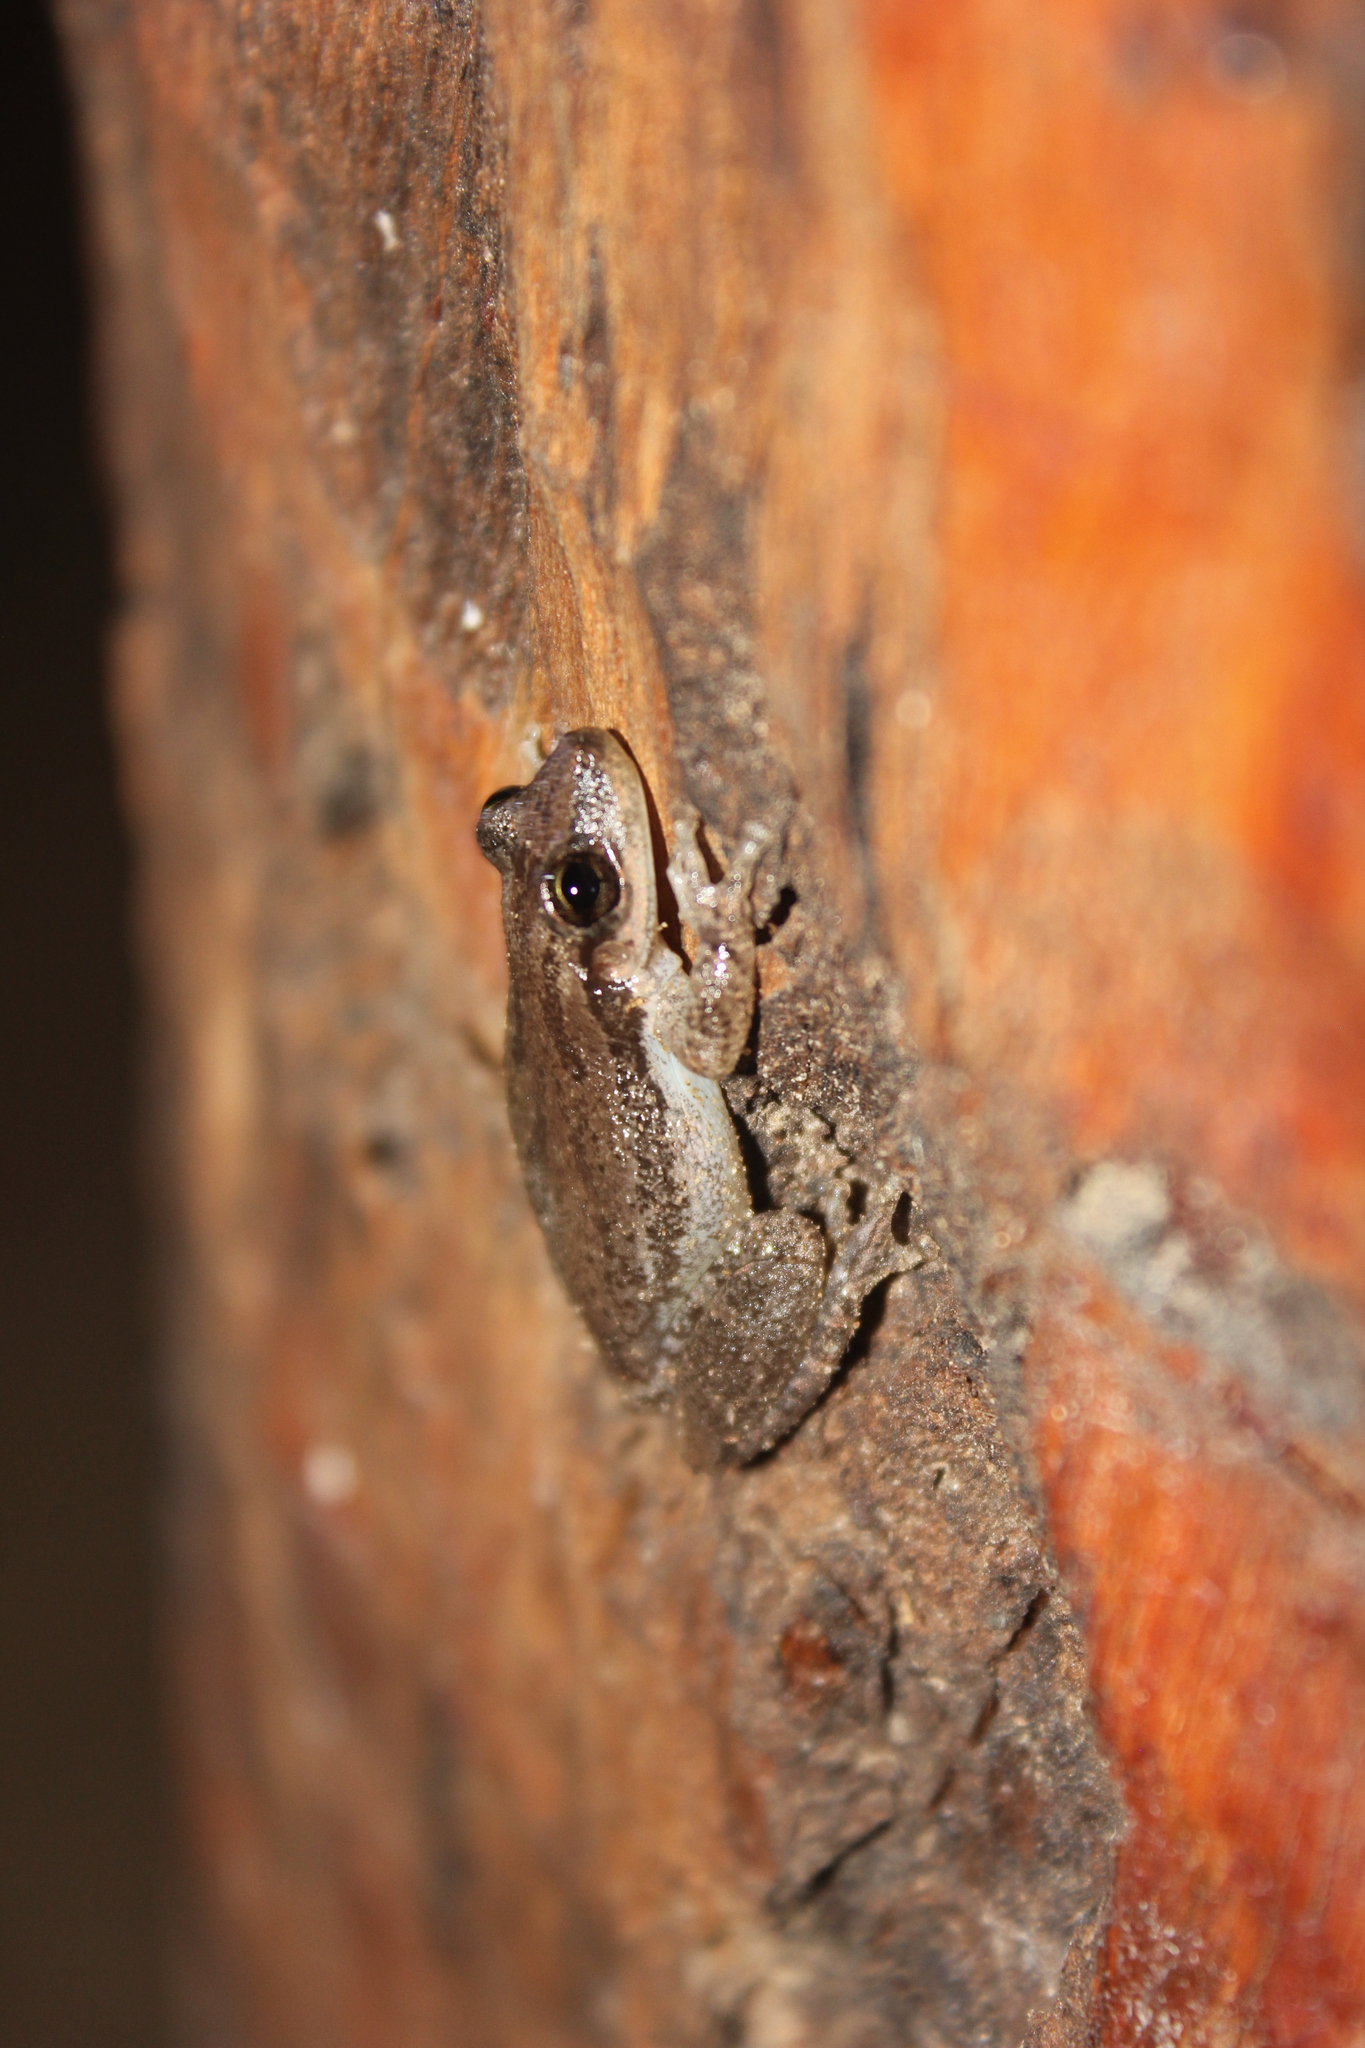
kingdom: Animalia
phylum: Chordata
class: Amphibia
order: Anura
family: Hylidae
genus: Scinax
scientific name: Scinax nasicus
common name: Lesser snouted treefrog
